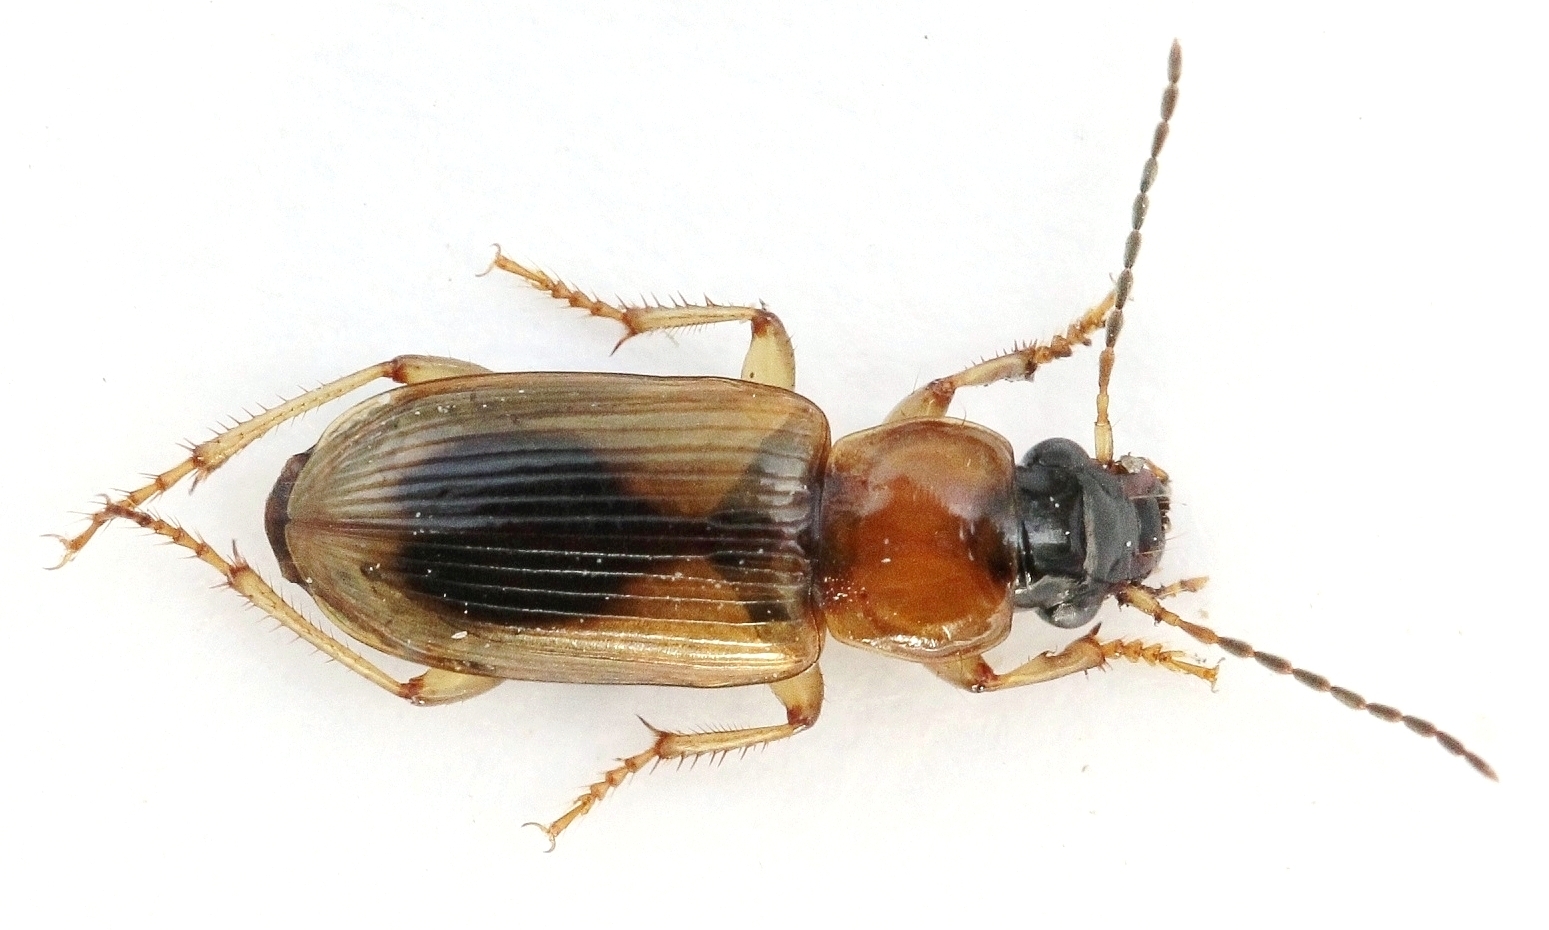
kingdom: Animalia
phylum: Arthropoda
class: Insecta
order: Coleoptera
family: Carabidae
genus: Stenolophus
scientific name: Stenolophus discophorus
